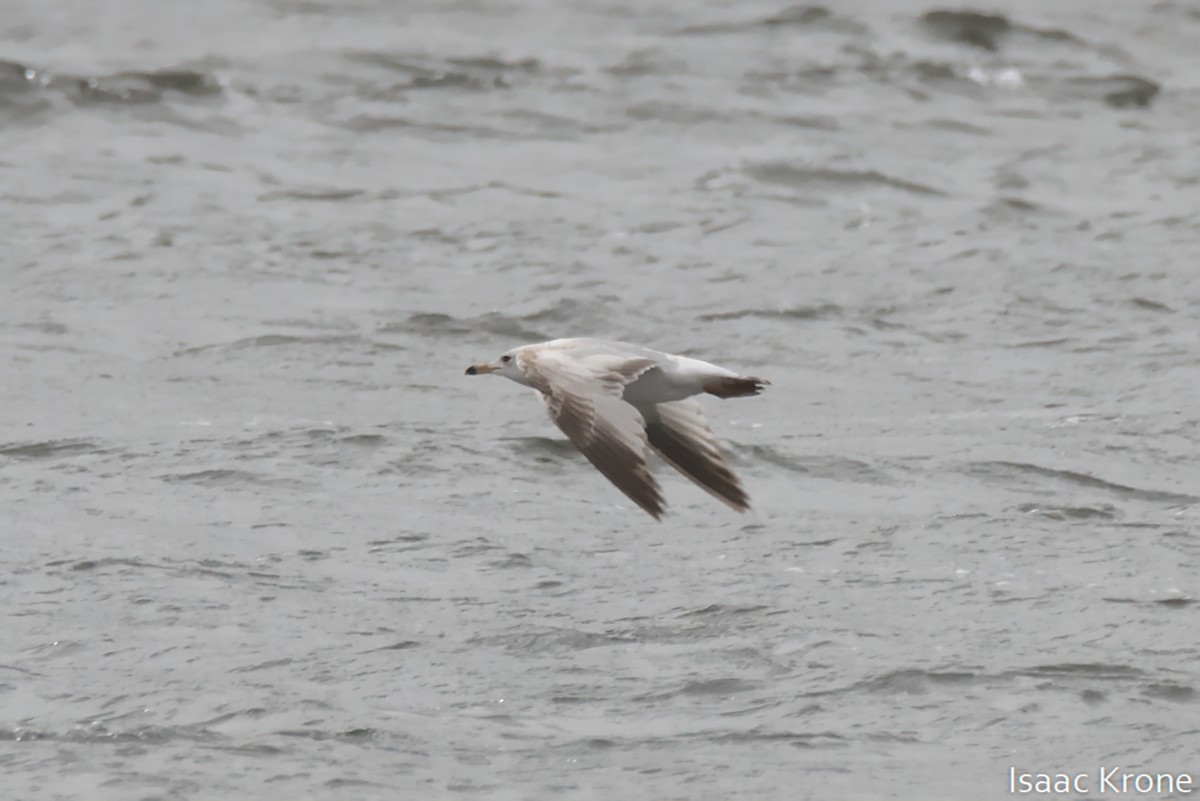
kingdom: Animalia
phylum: Chordata
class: Aves
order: Charadriiformes
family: Laridae
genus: Larus
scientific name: Larus delawarensis
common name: Ring-billed gull
